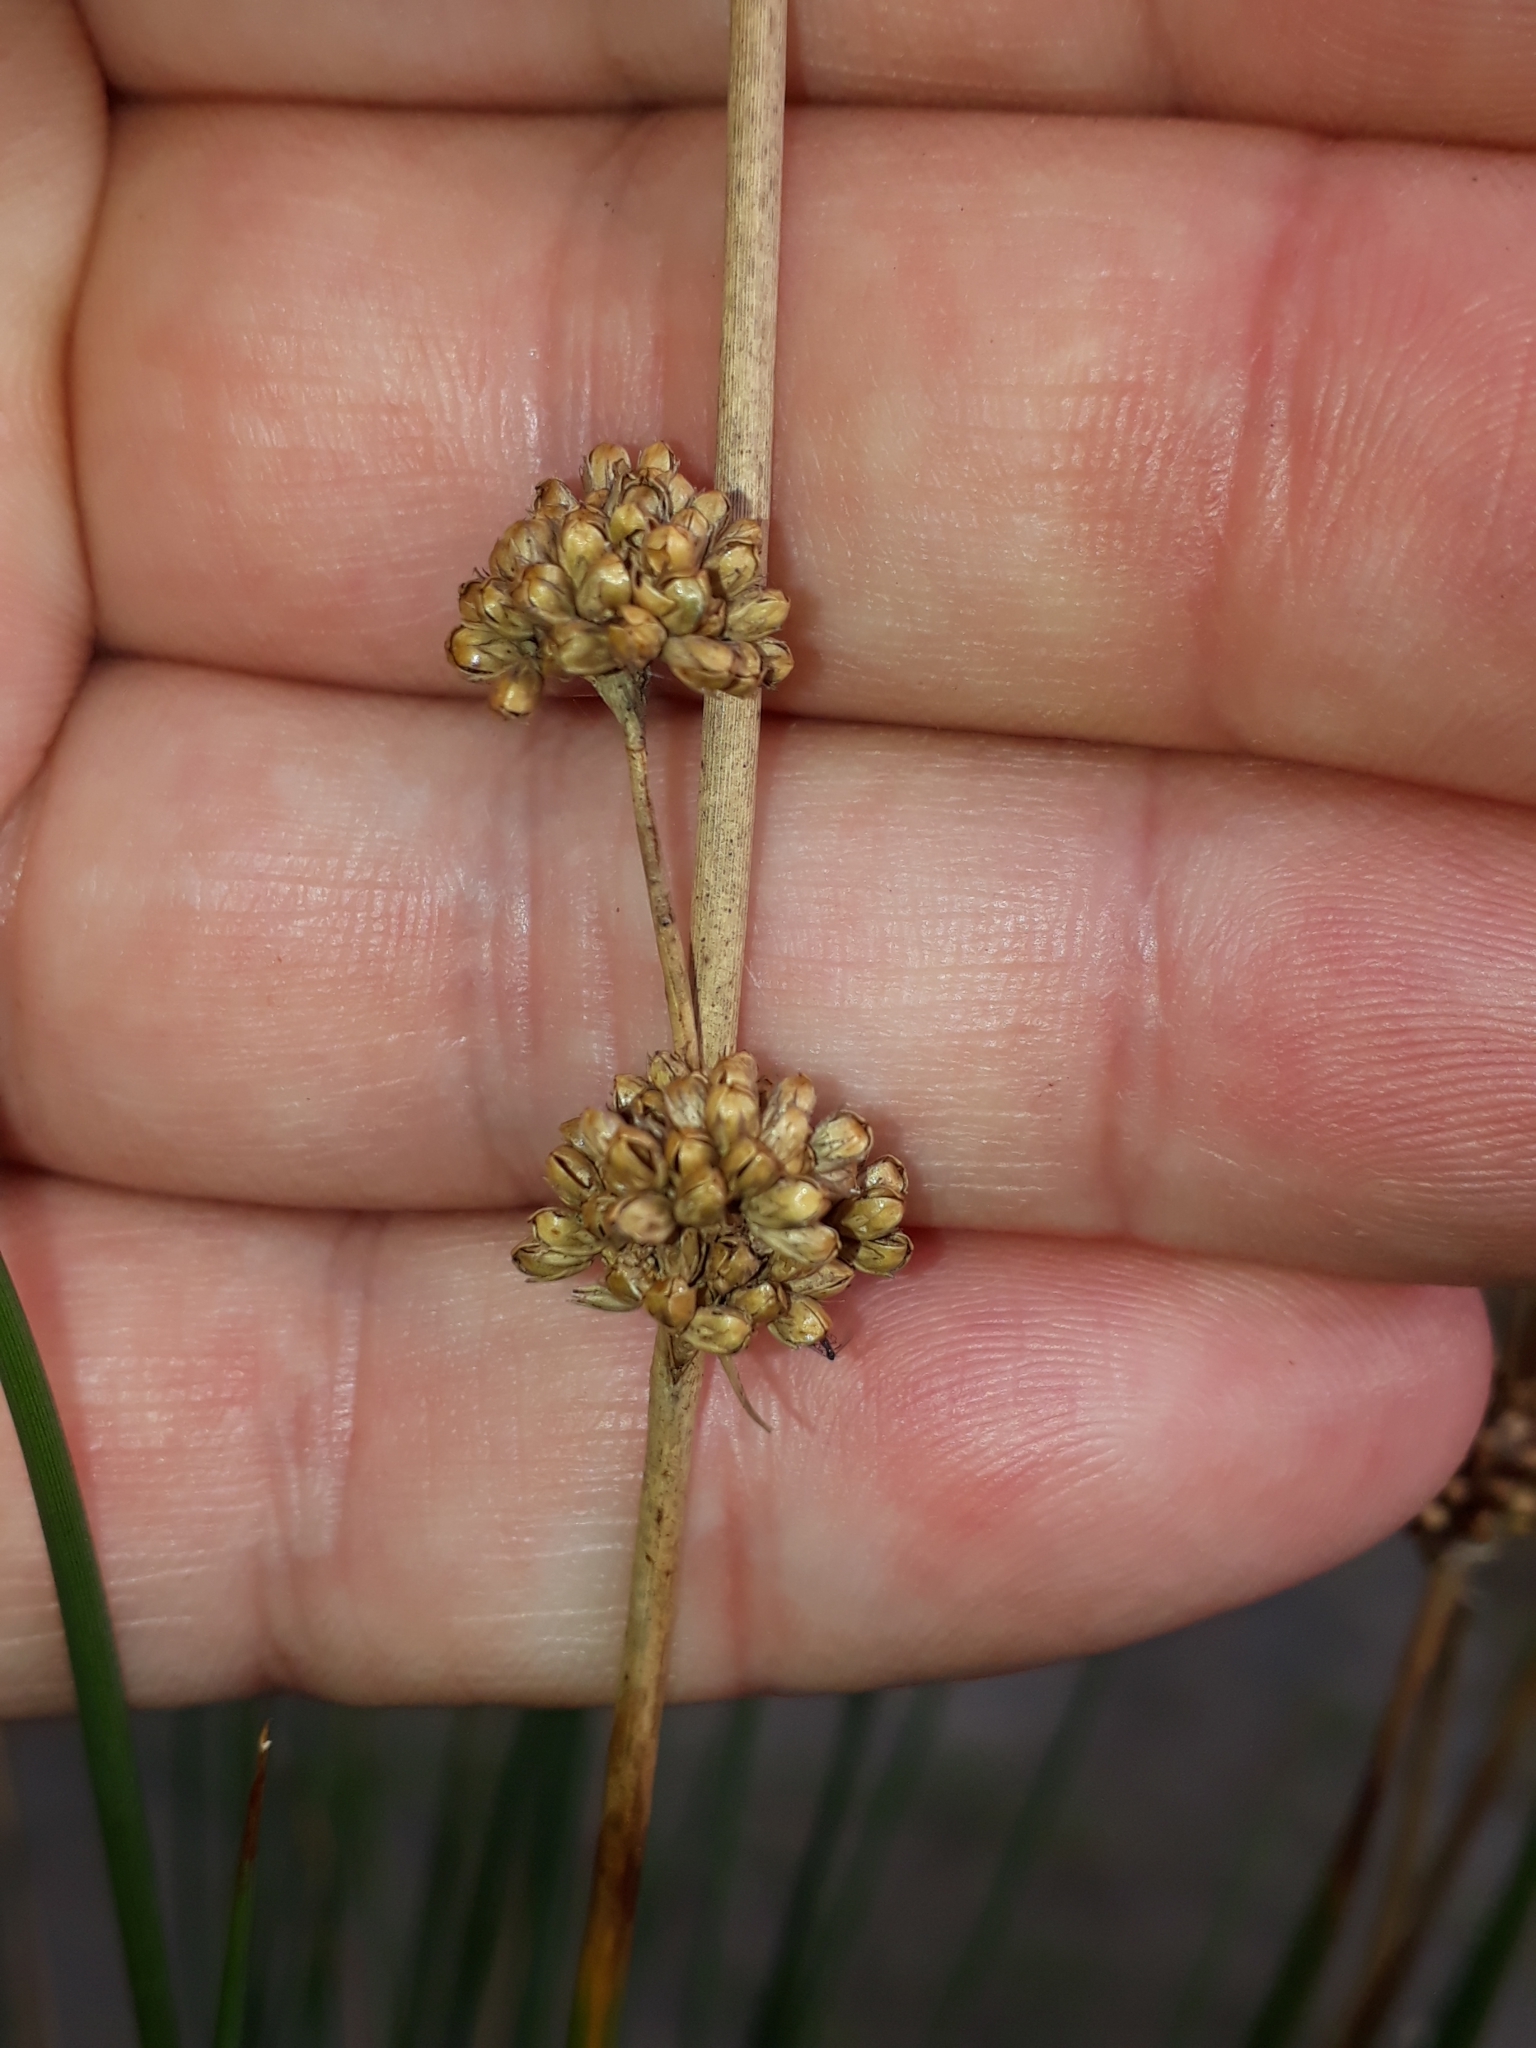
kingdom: Plantae
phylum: Tracheophyta
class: Liliopsida
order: Poales
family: Juncaceae
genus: Juncus
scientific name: Juncus australis
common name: Austral rush
